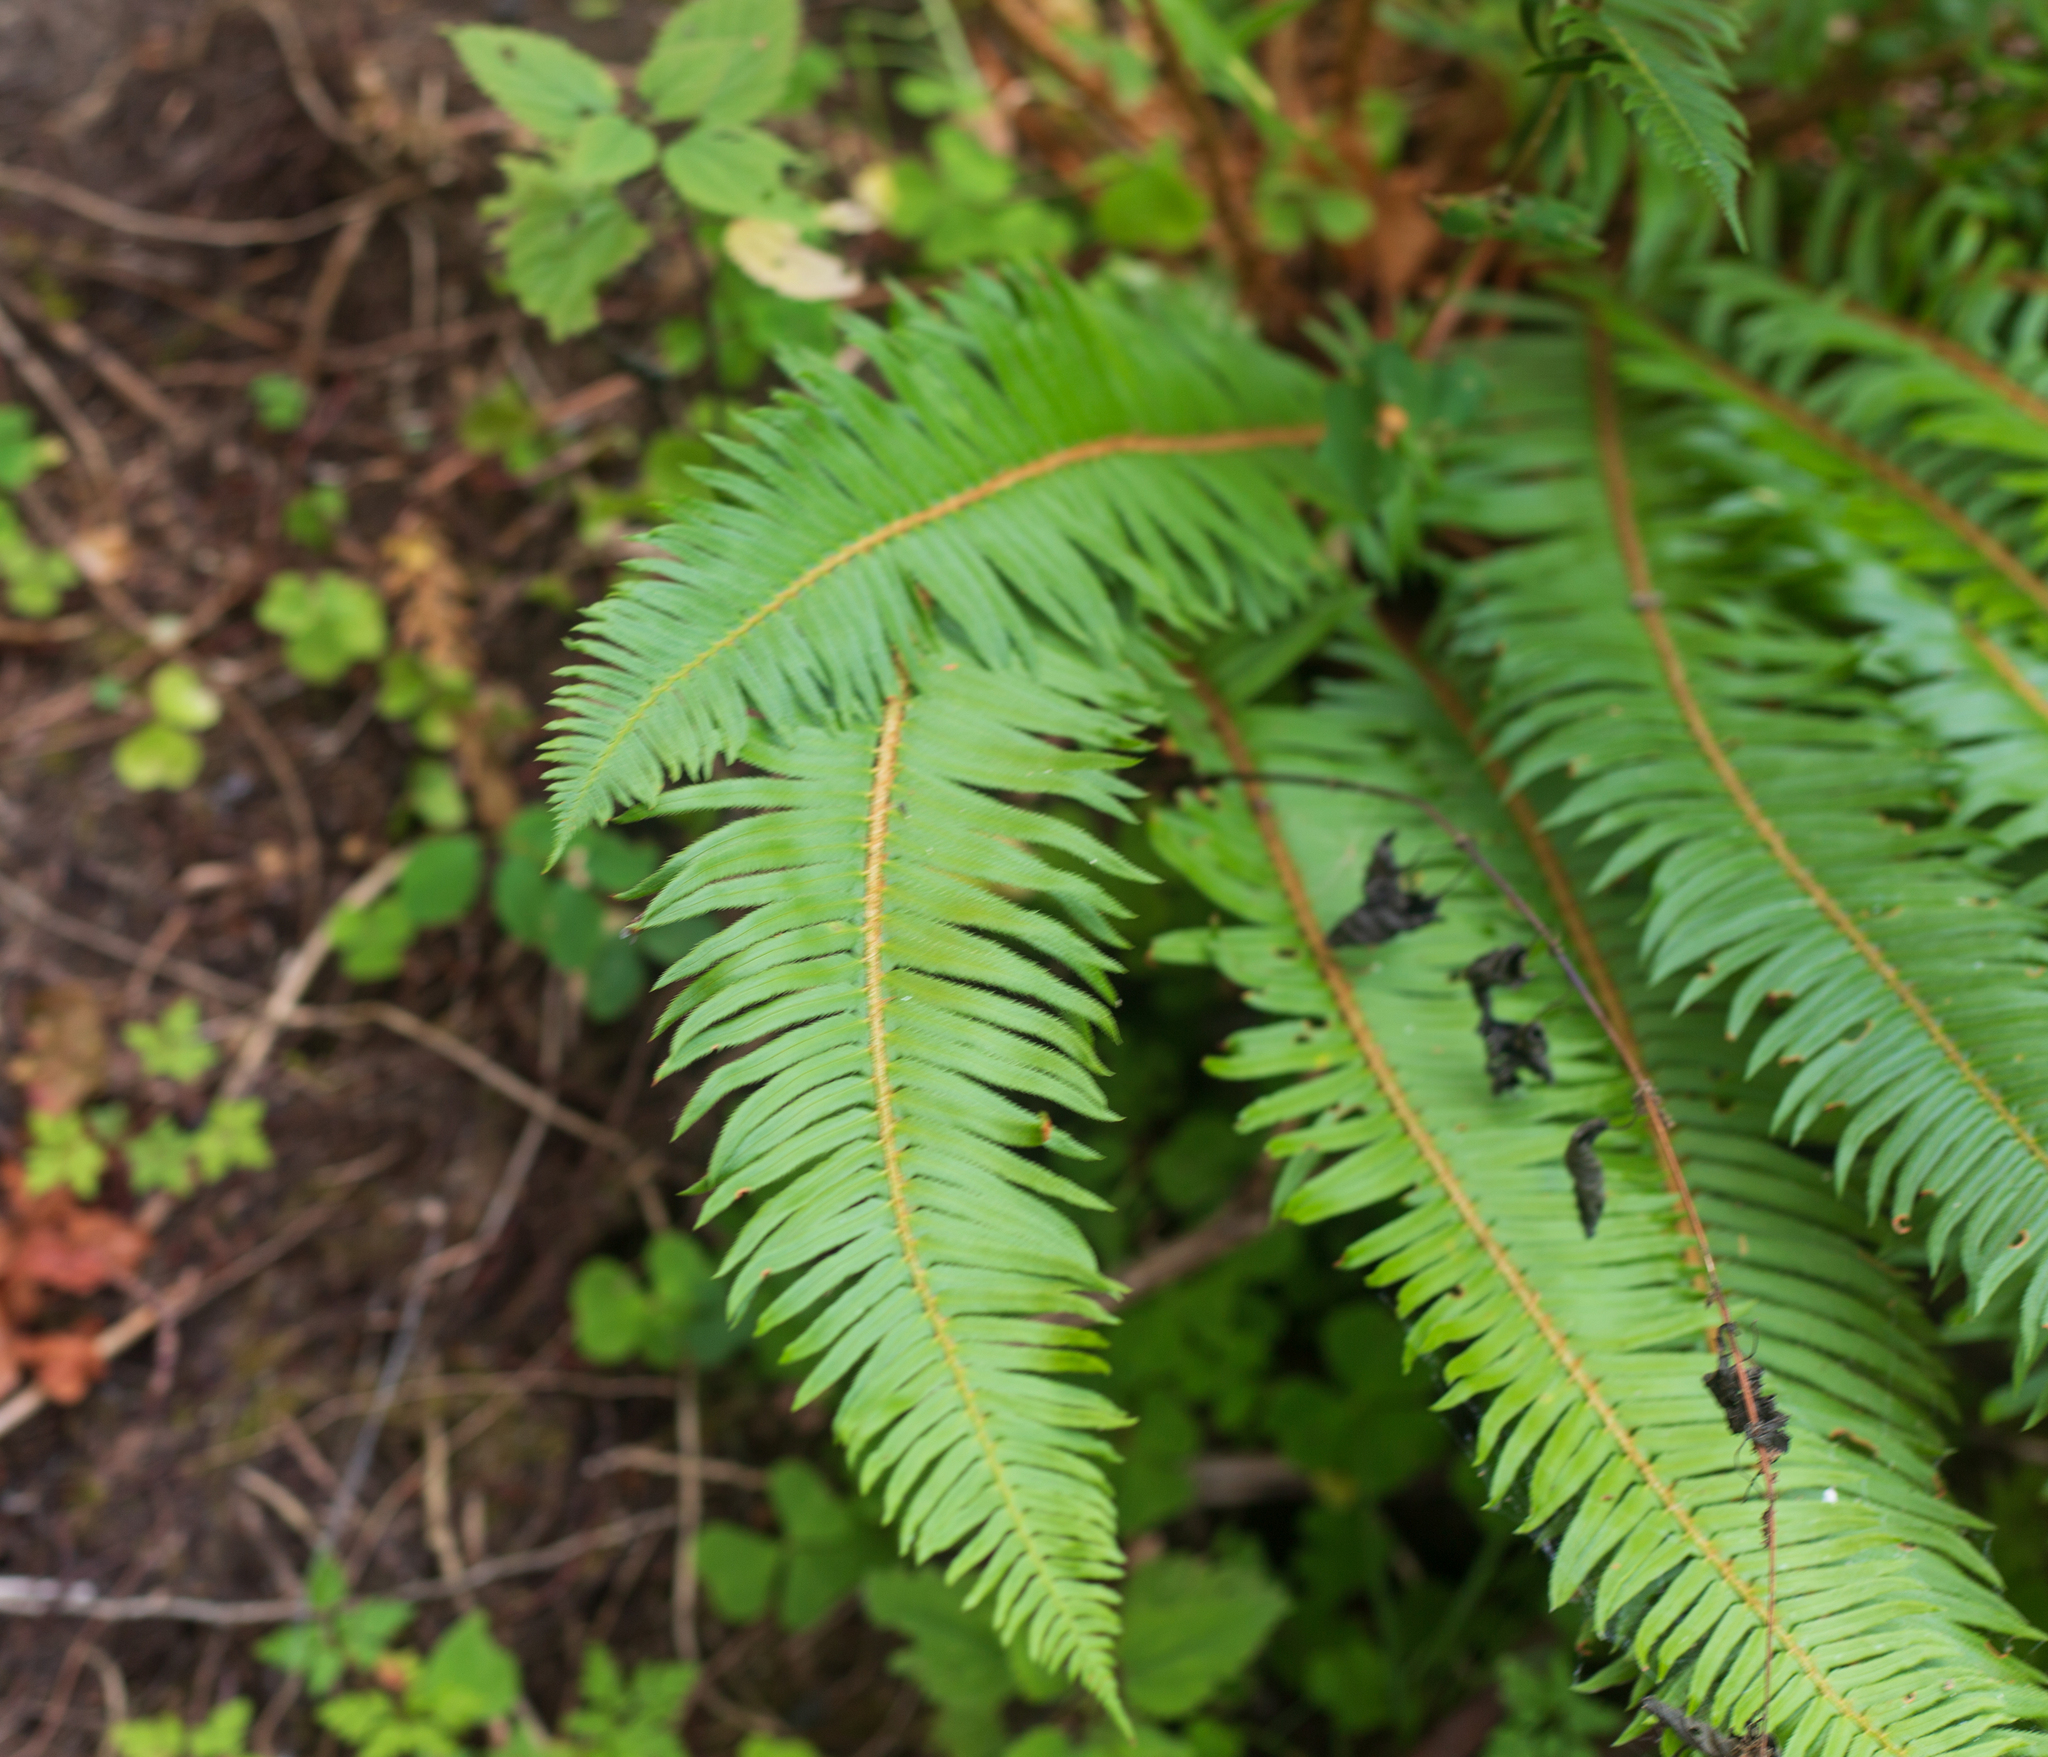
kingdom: Plantae
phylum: Tracheophyta
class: Polypodiopsida
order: Polypodiales
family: Dryopteridaceae
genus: Polystichum
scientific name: Polystichum munitum
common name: Western sword-fern
